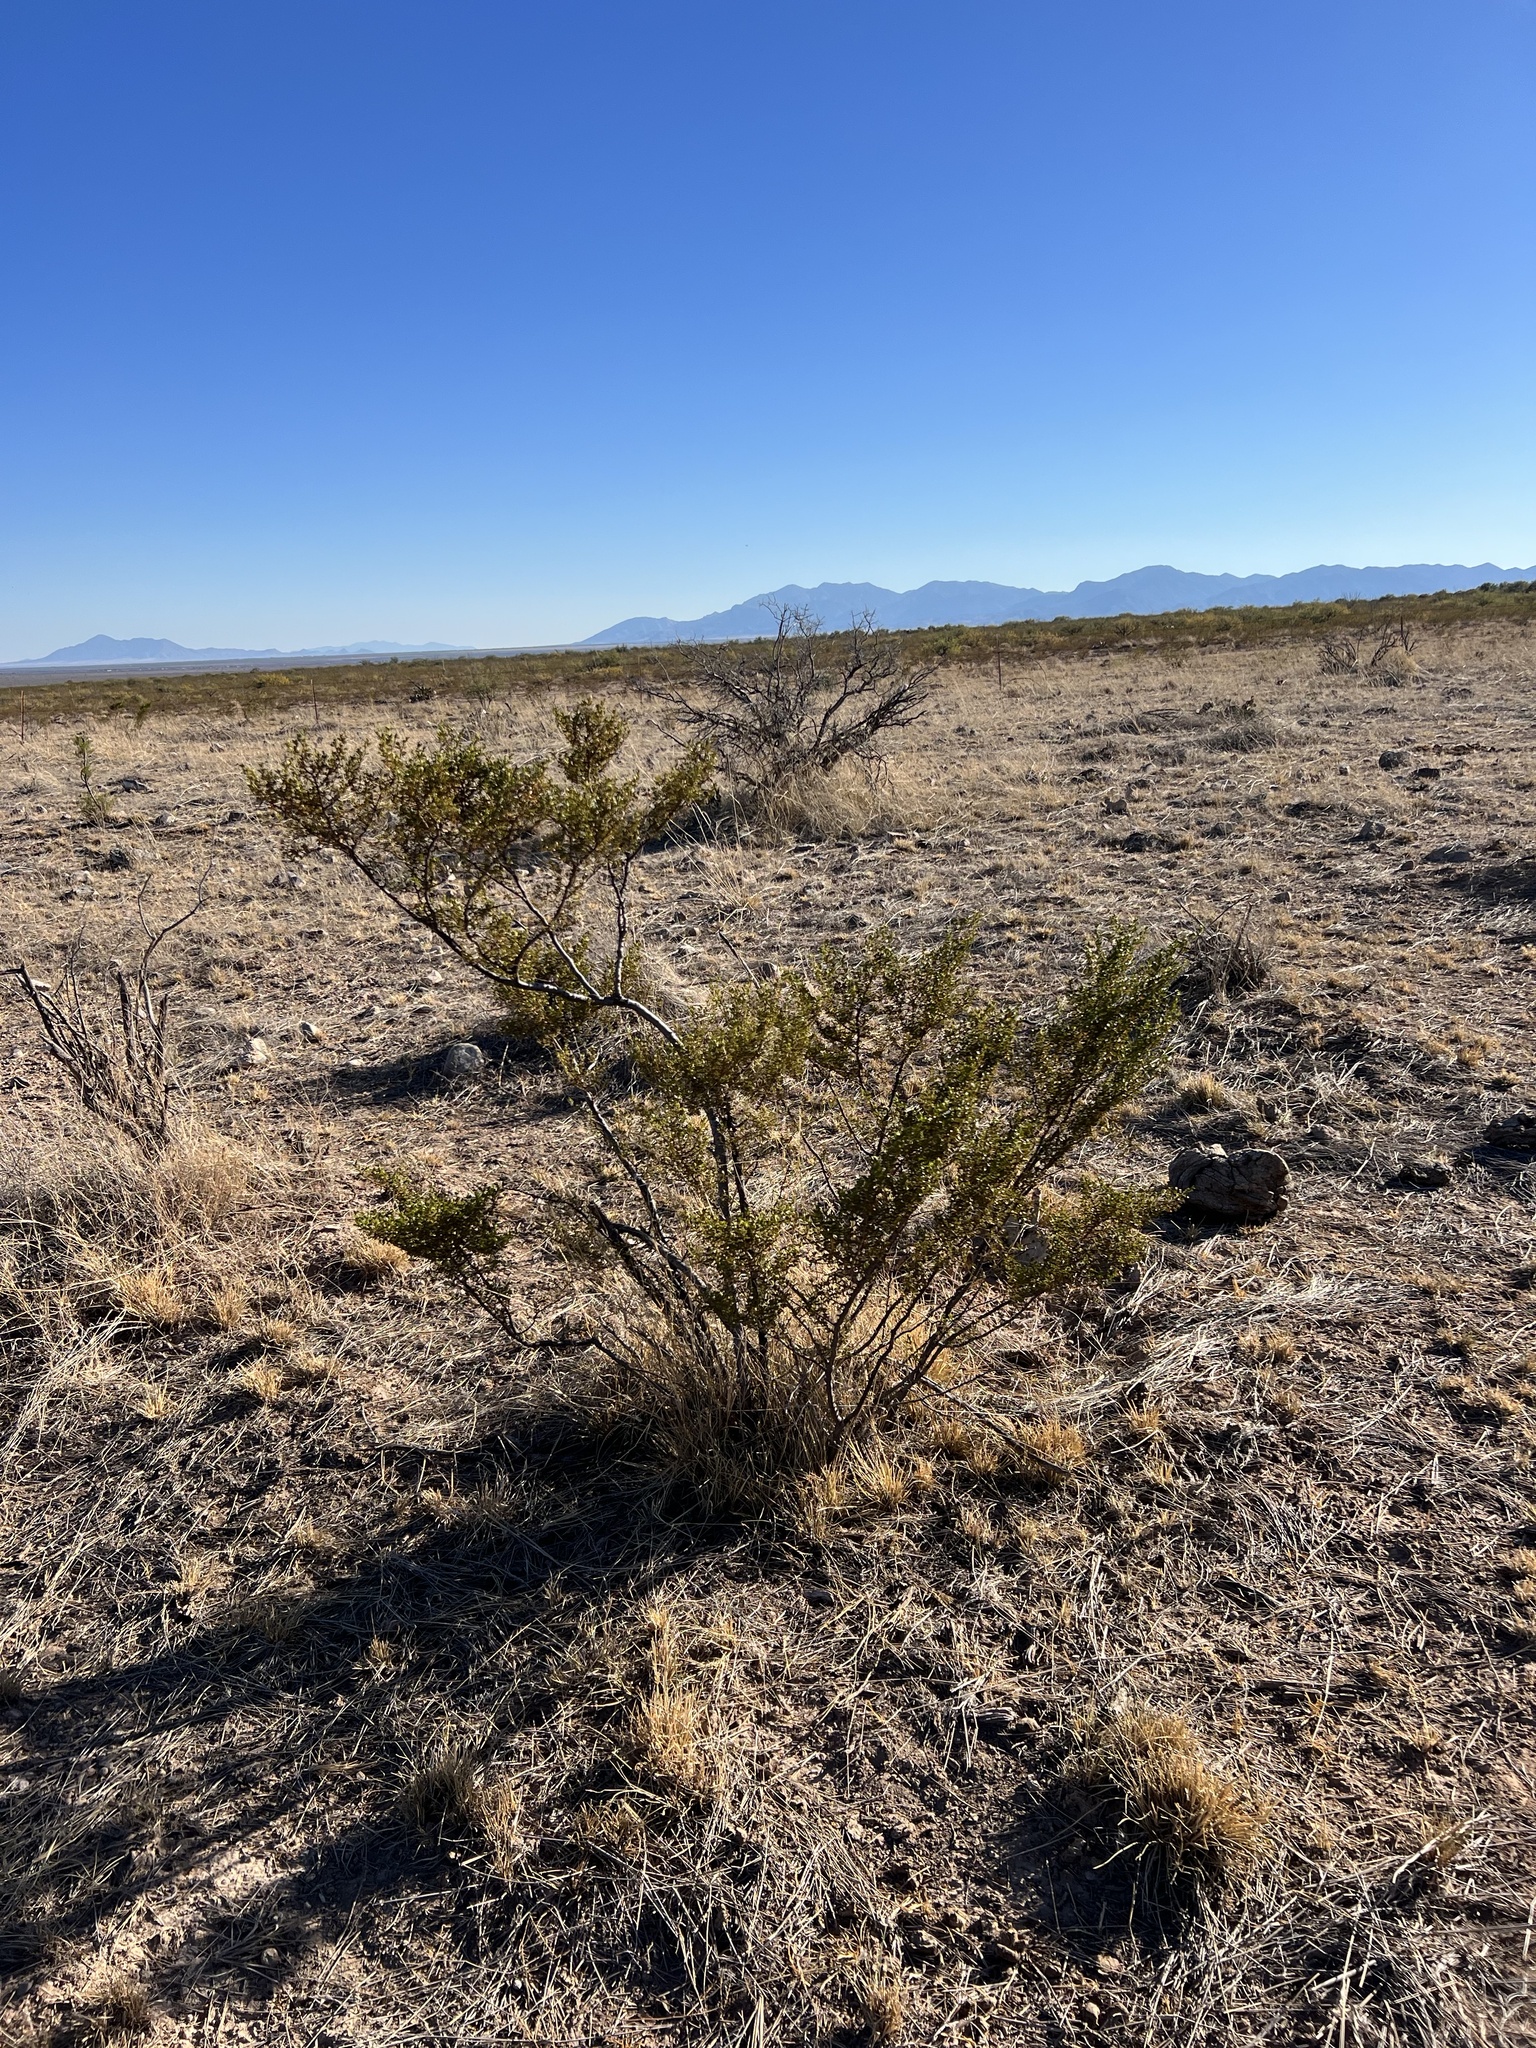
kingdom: Plantae
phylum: Tracheophyta
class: Magnoliopsida
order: Zygophyllales
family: Zygophyllaceae
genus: Larrea
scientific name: Larrea tridentata
